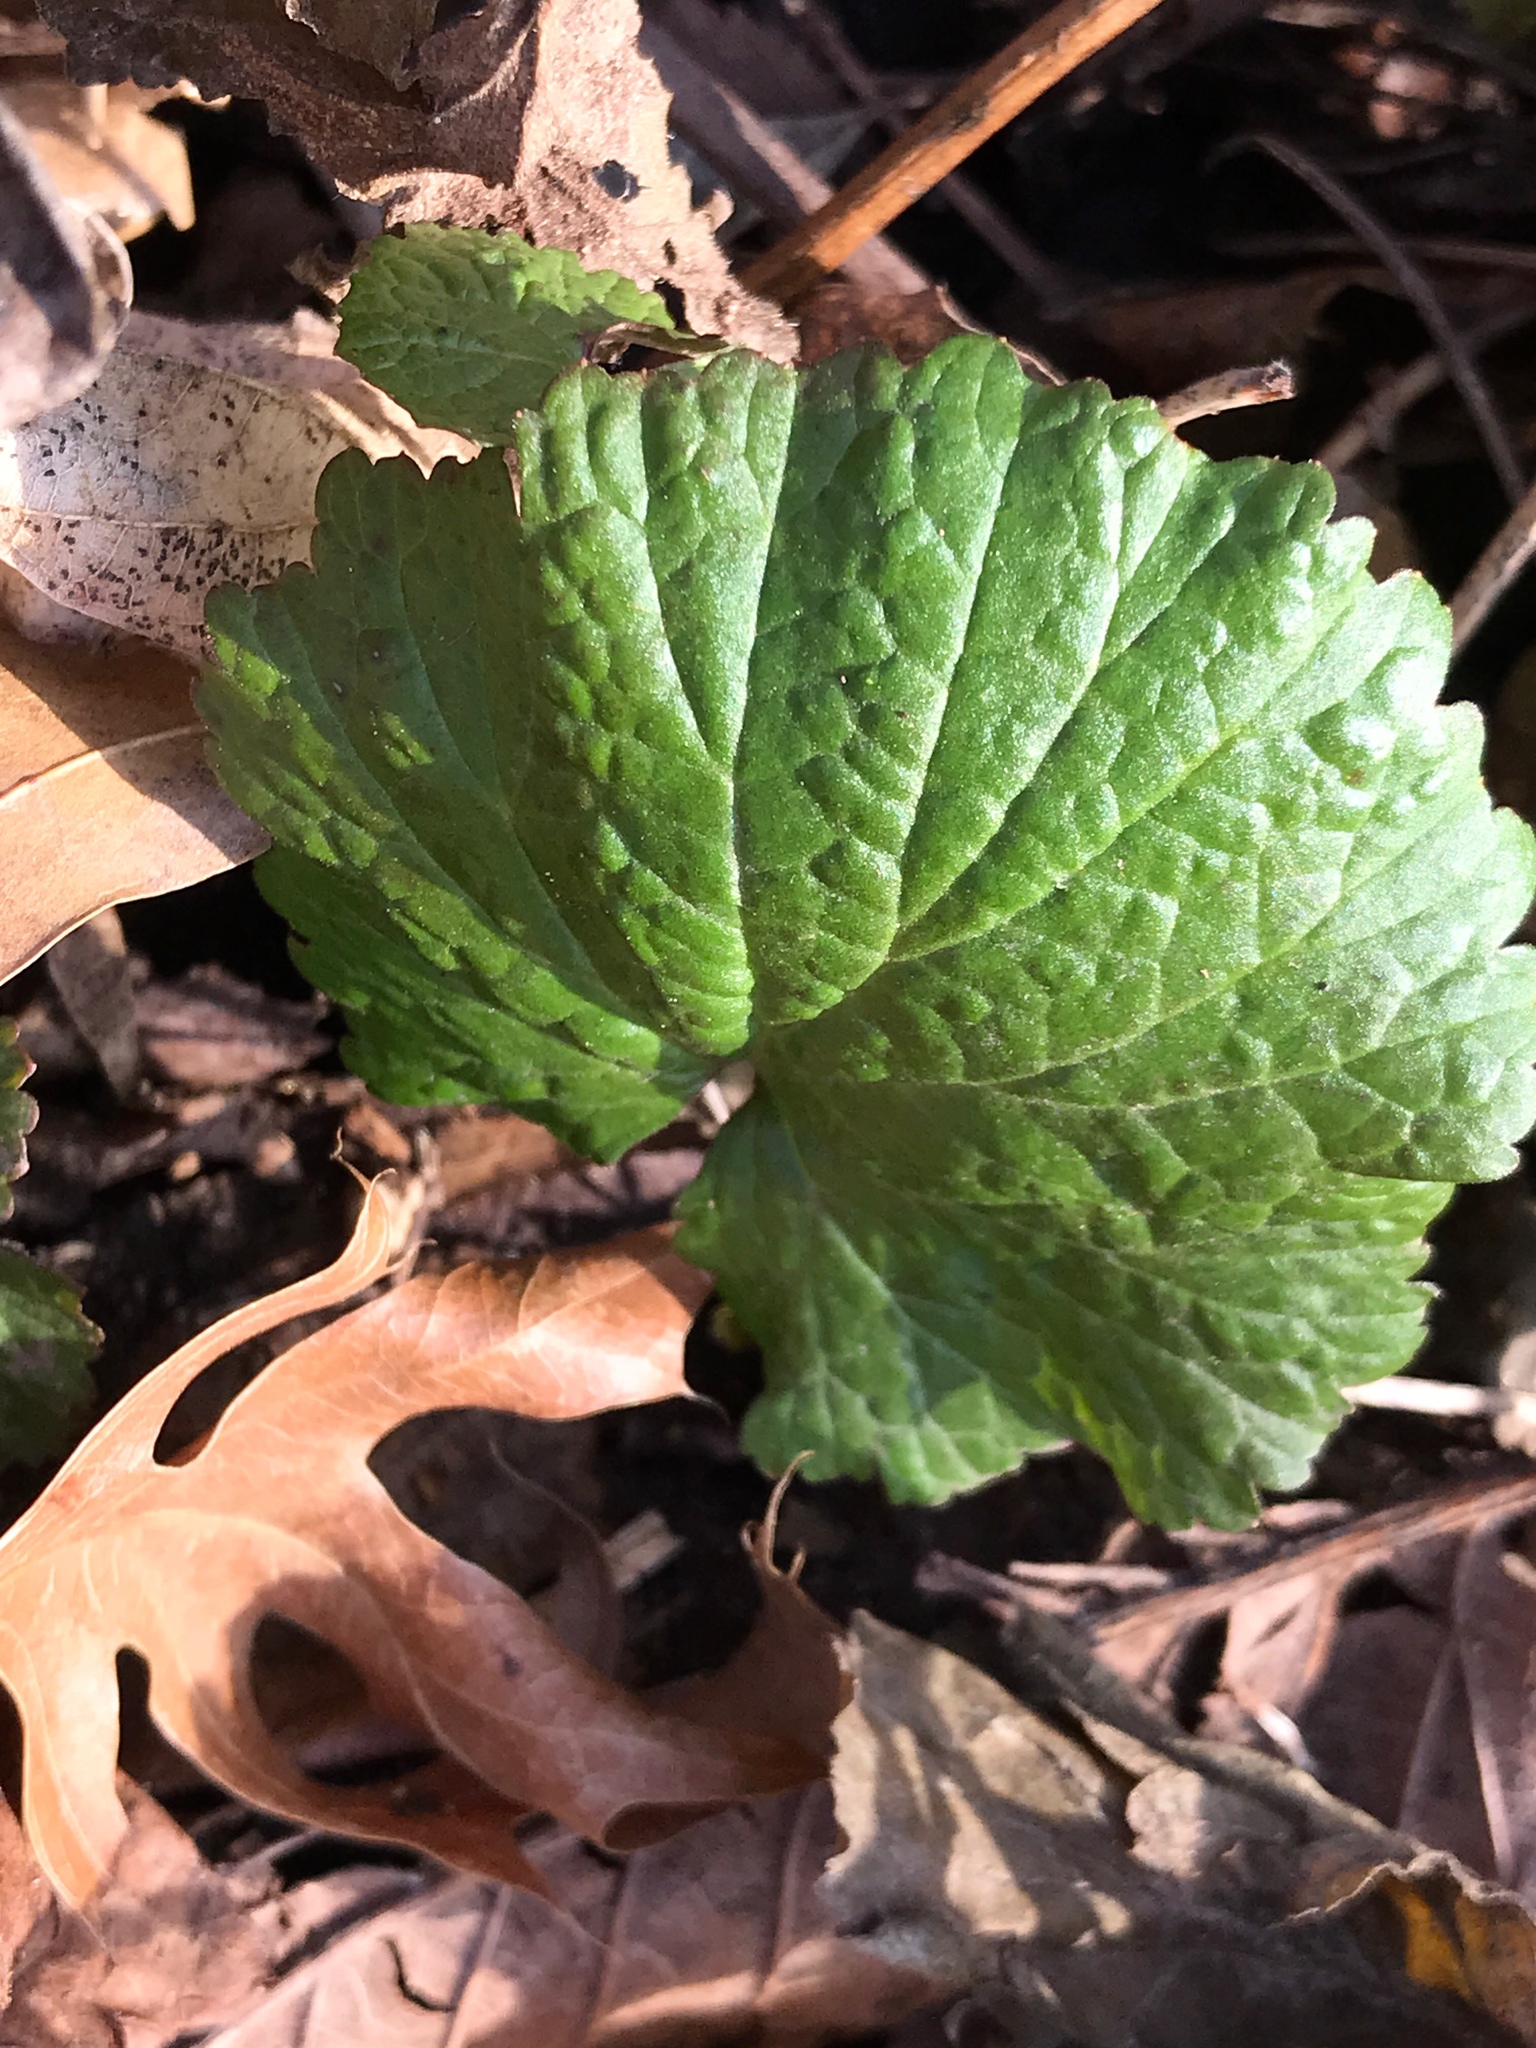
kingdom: Plantae
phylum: Tracheophyta
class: Magnoliopsida
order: Rosales
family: Rosaceae
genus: Geum
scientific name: Geum canadense
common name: White avens
